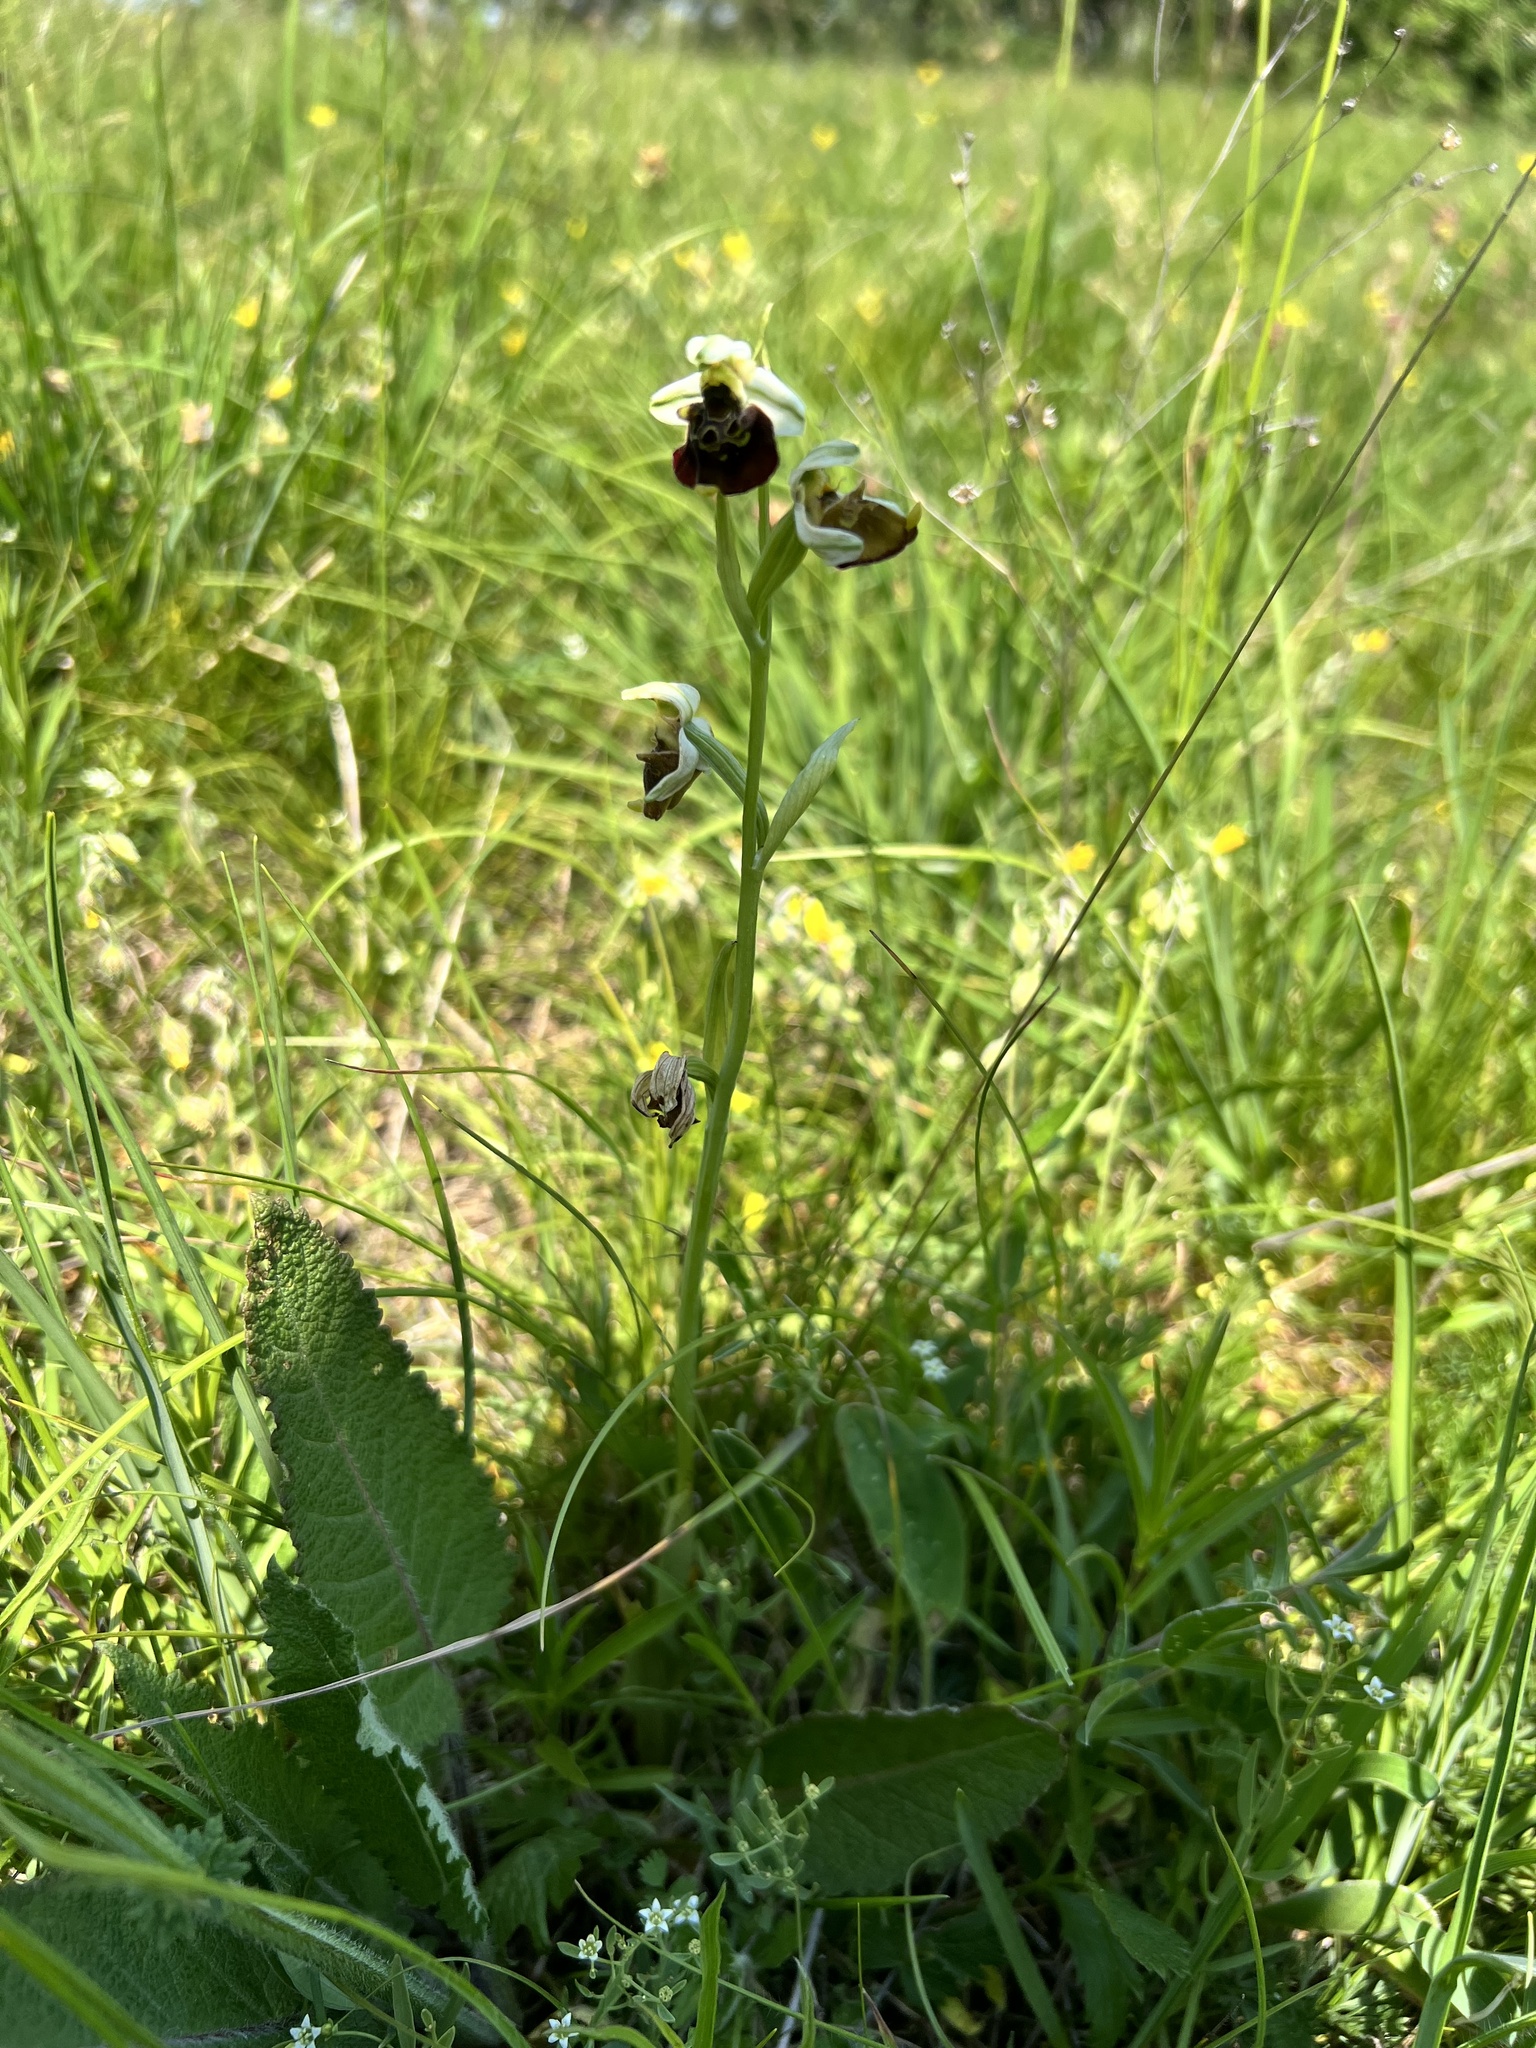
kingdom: Plantae
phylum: Tracheophyta
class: Liliopsida
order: Asparagales
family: Orchidaceae
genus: Ophrys
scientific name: Ophrys holosericea
